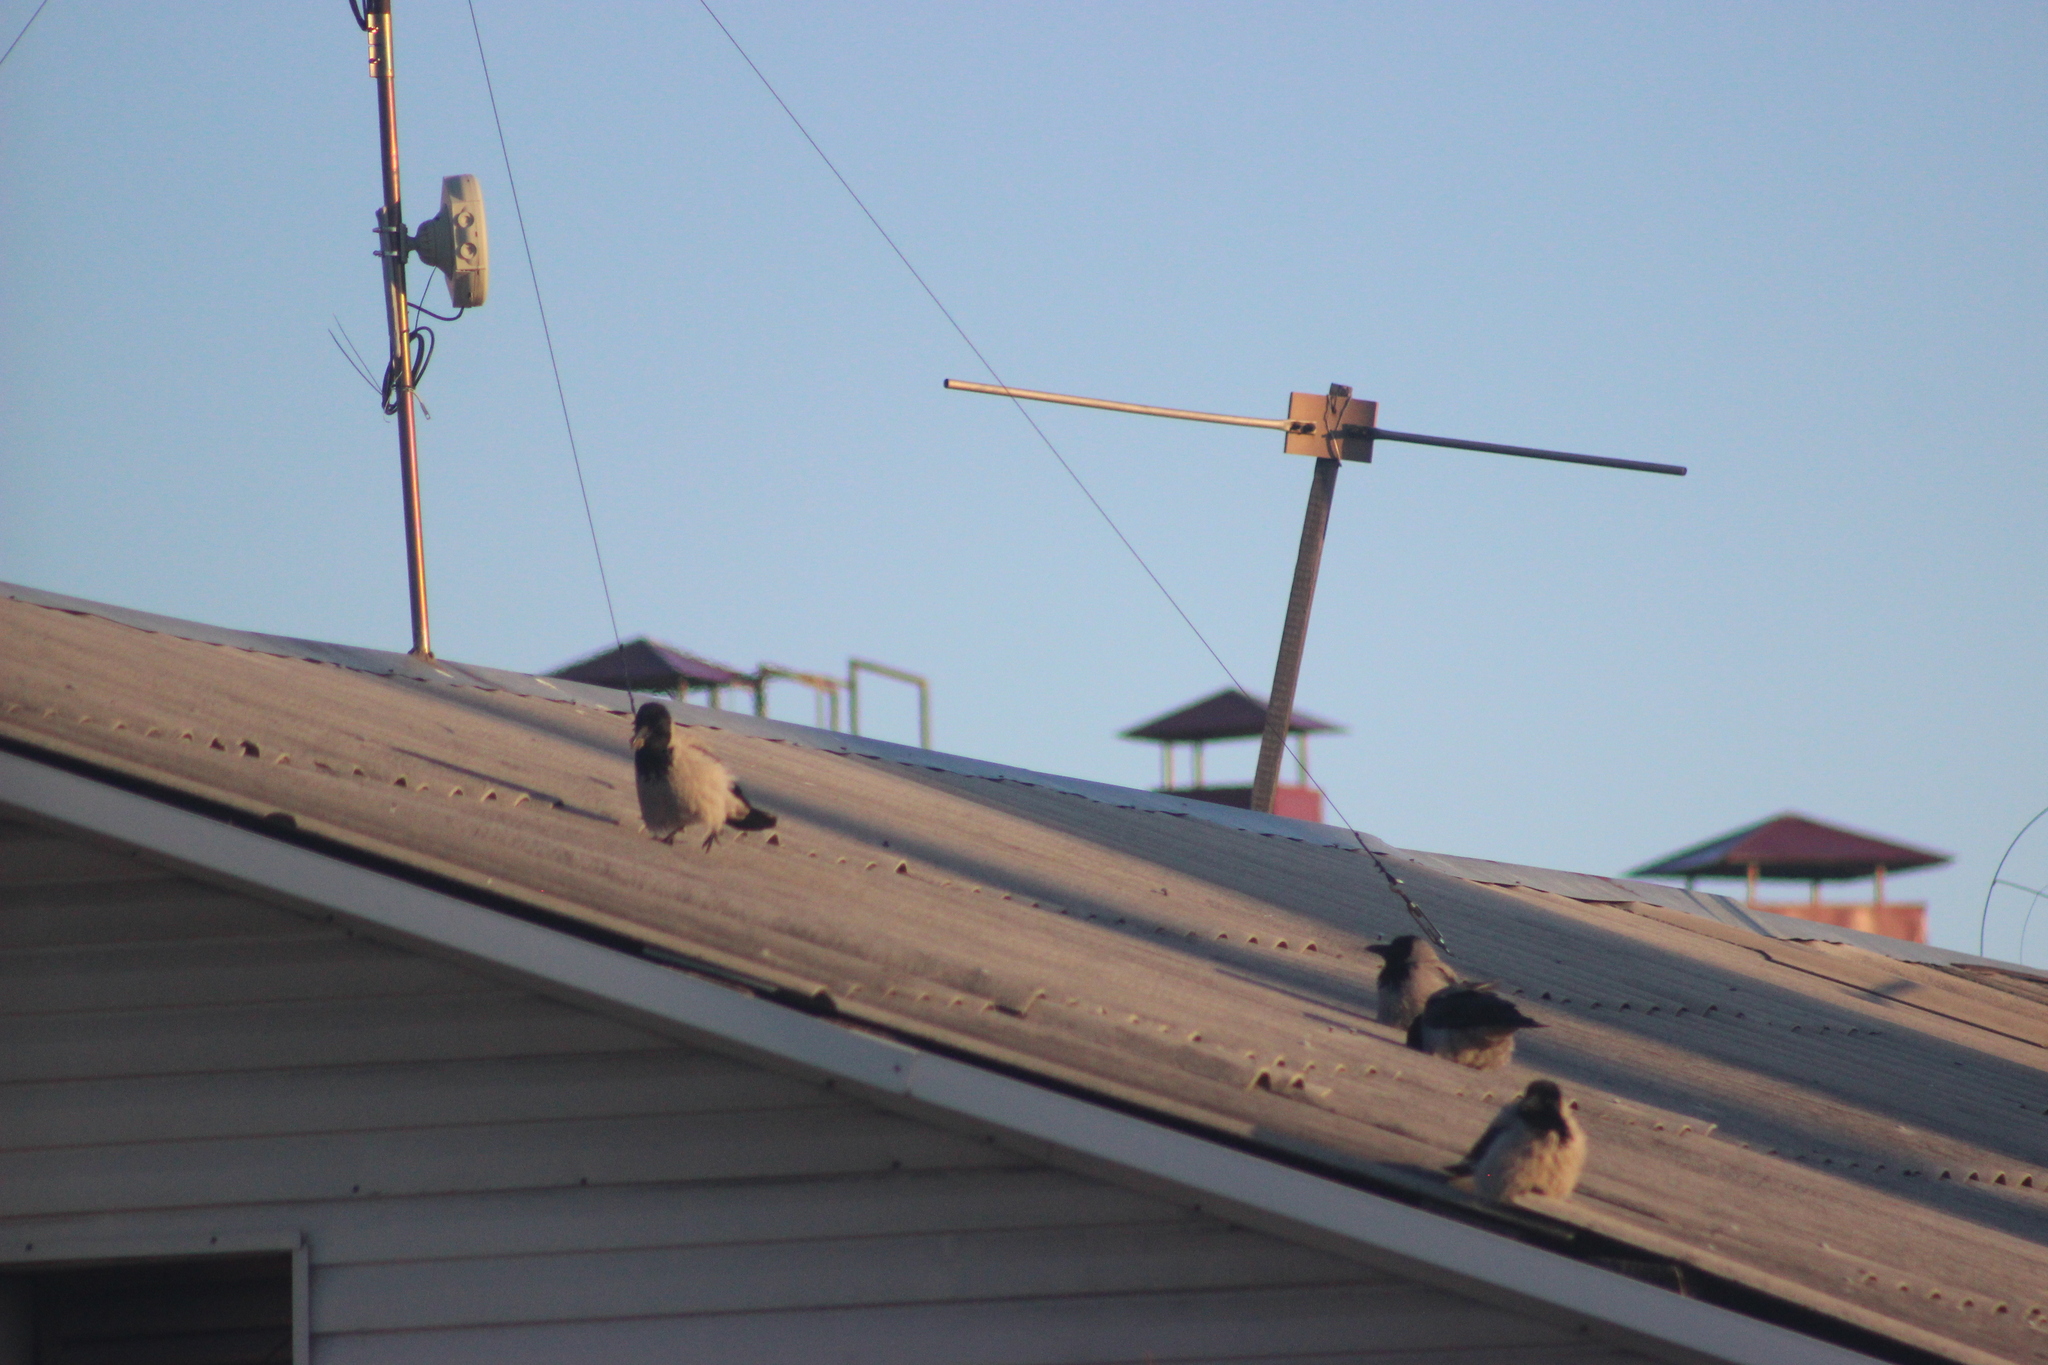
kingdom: Animalia
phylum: Chordata
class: Aves
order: Passeriformes
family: Corvidae
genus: Corvus
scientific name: Corvus cornix
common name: Hooded crow
